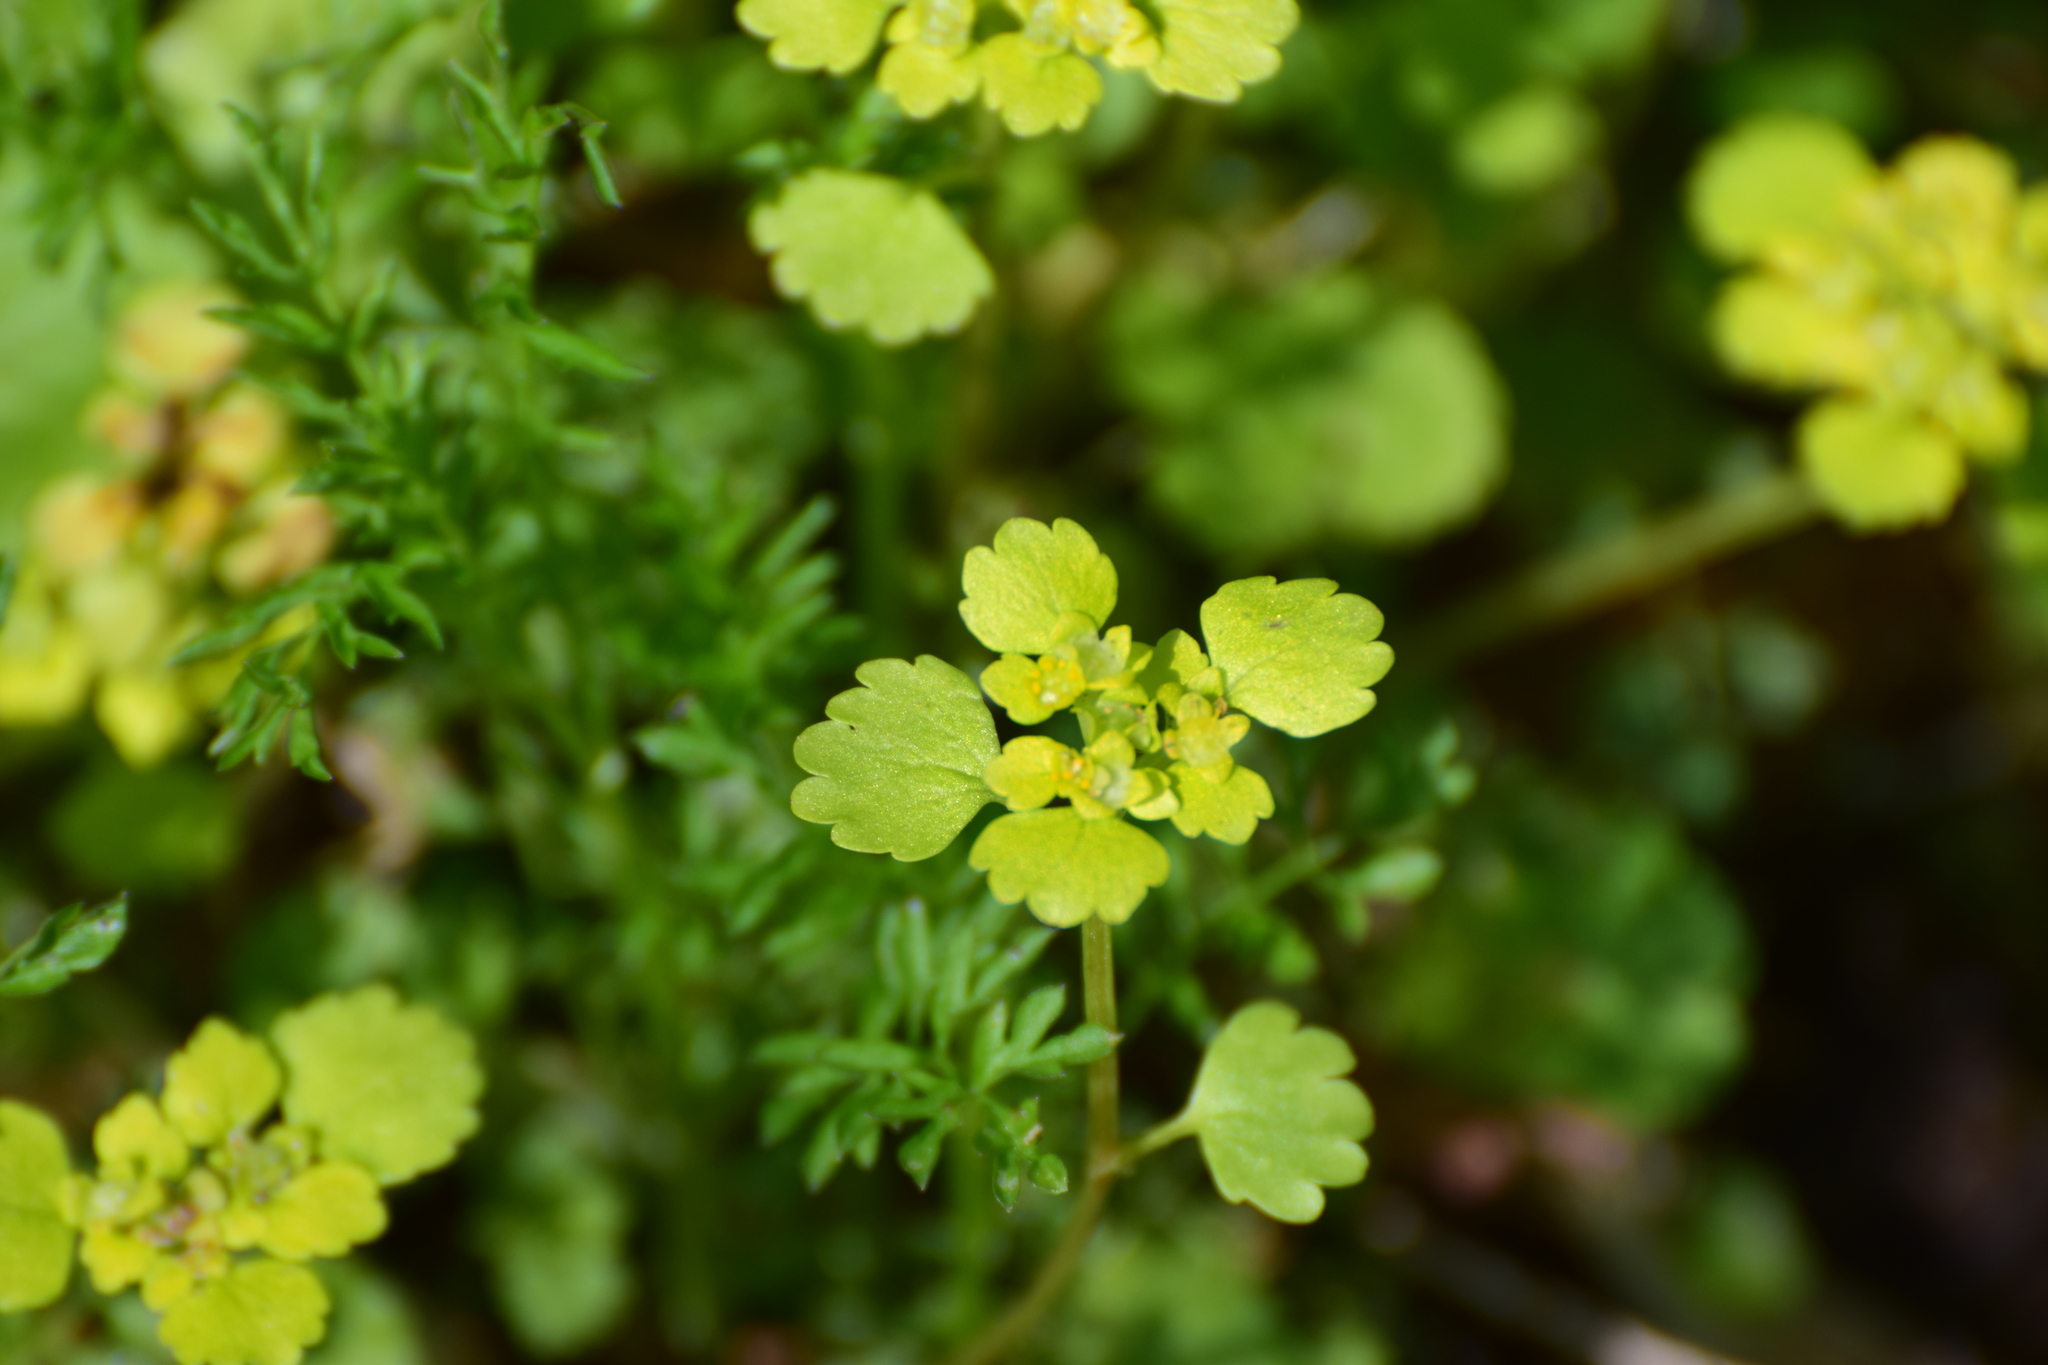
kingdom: Plantae
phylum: Tracheophyta
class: Magnoliopsida
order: Saxifragales
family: Saxifragaceae
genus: Chrysosplenium
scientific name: Chrysosplenium alternifolium
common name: Alternate-leaved golden-saxifrage
